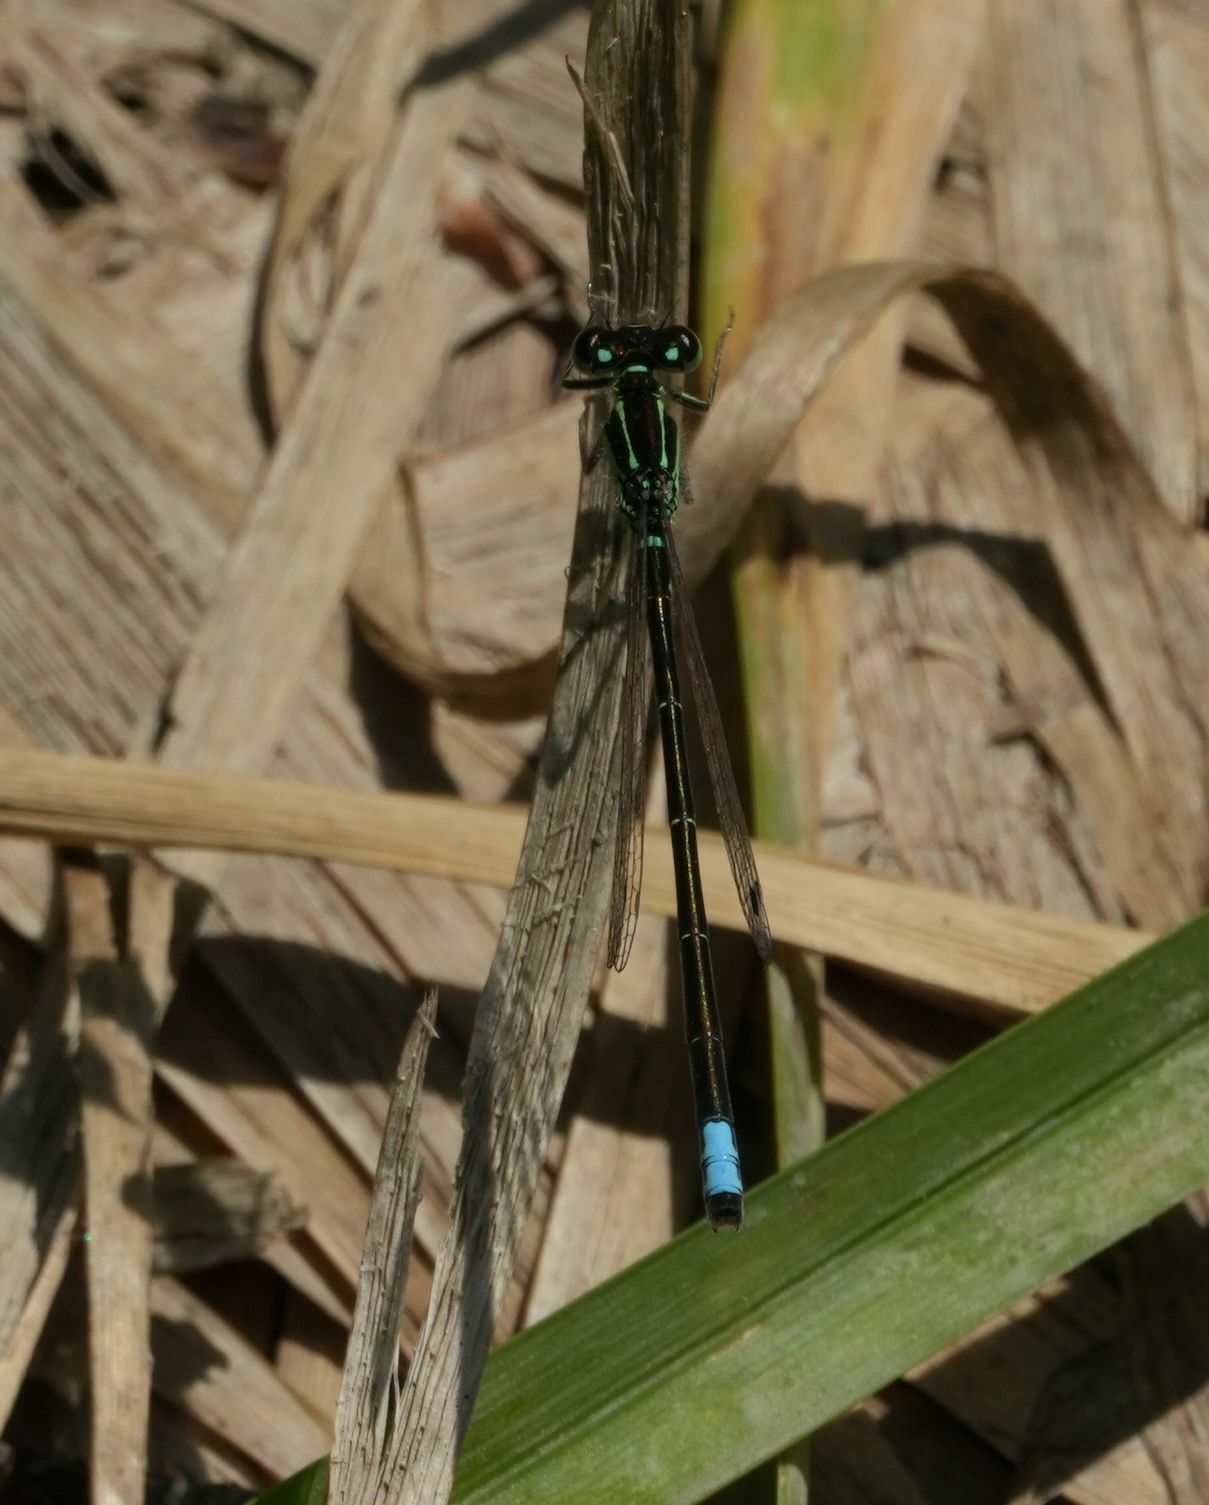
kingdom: Animalia
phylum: Arthropoda
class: Insecta
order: Odonata
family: Coenagrionidae
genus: Ischnura
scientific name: Ischnura verticalis
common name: Eastern forktail
